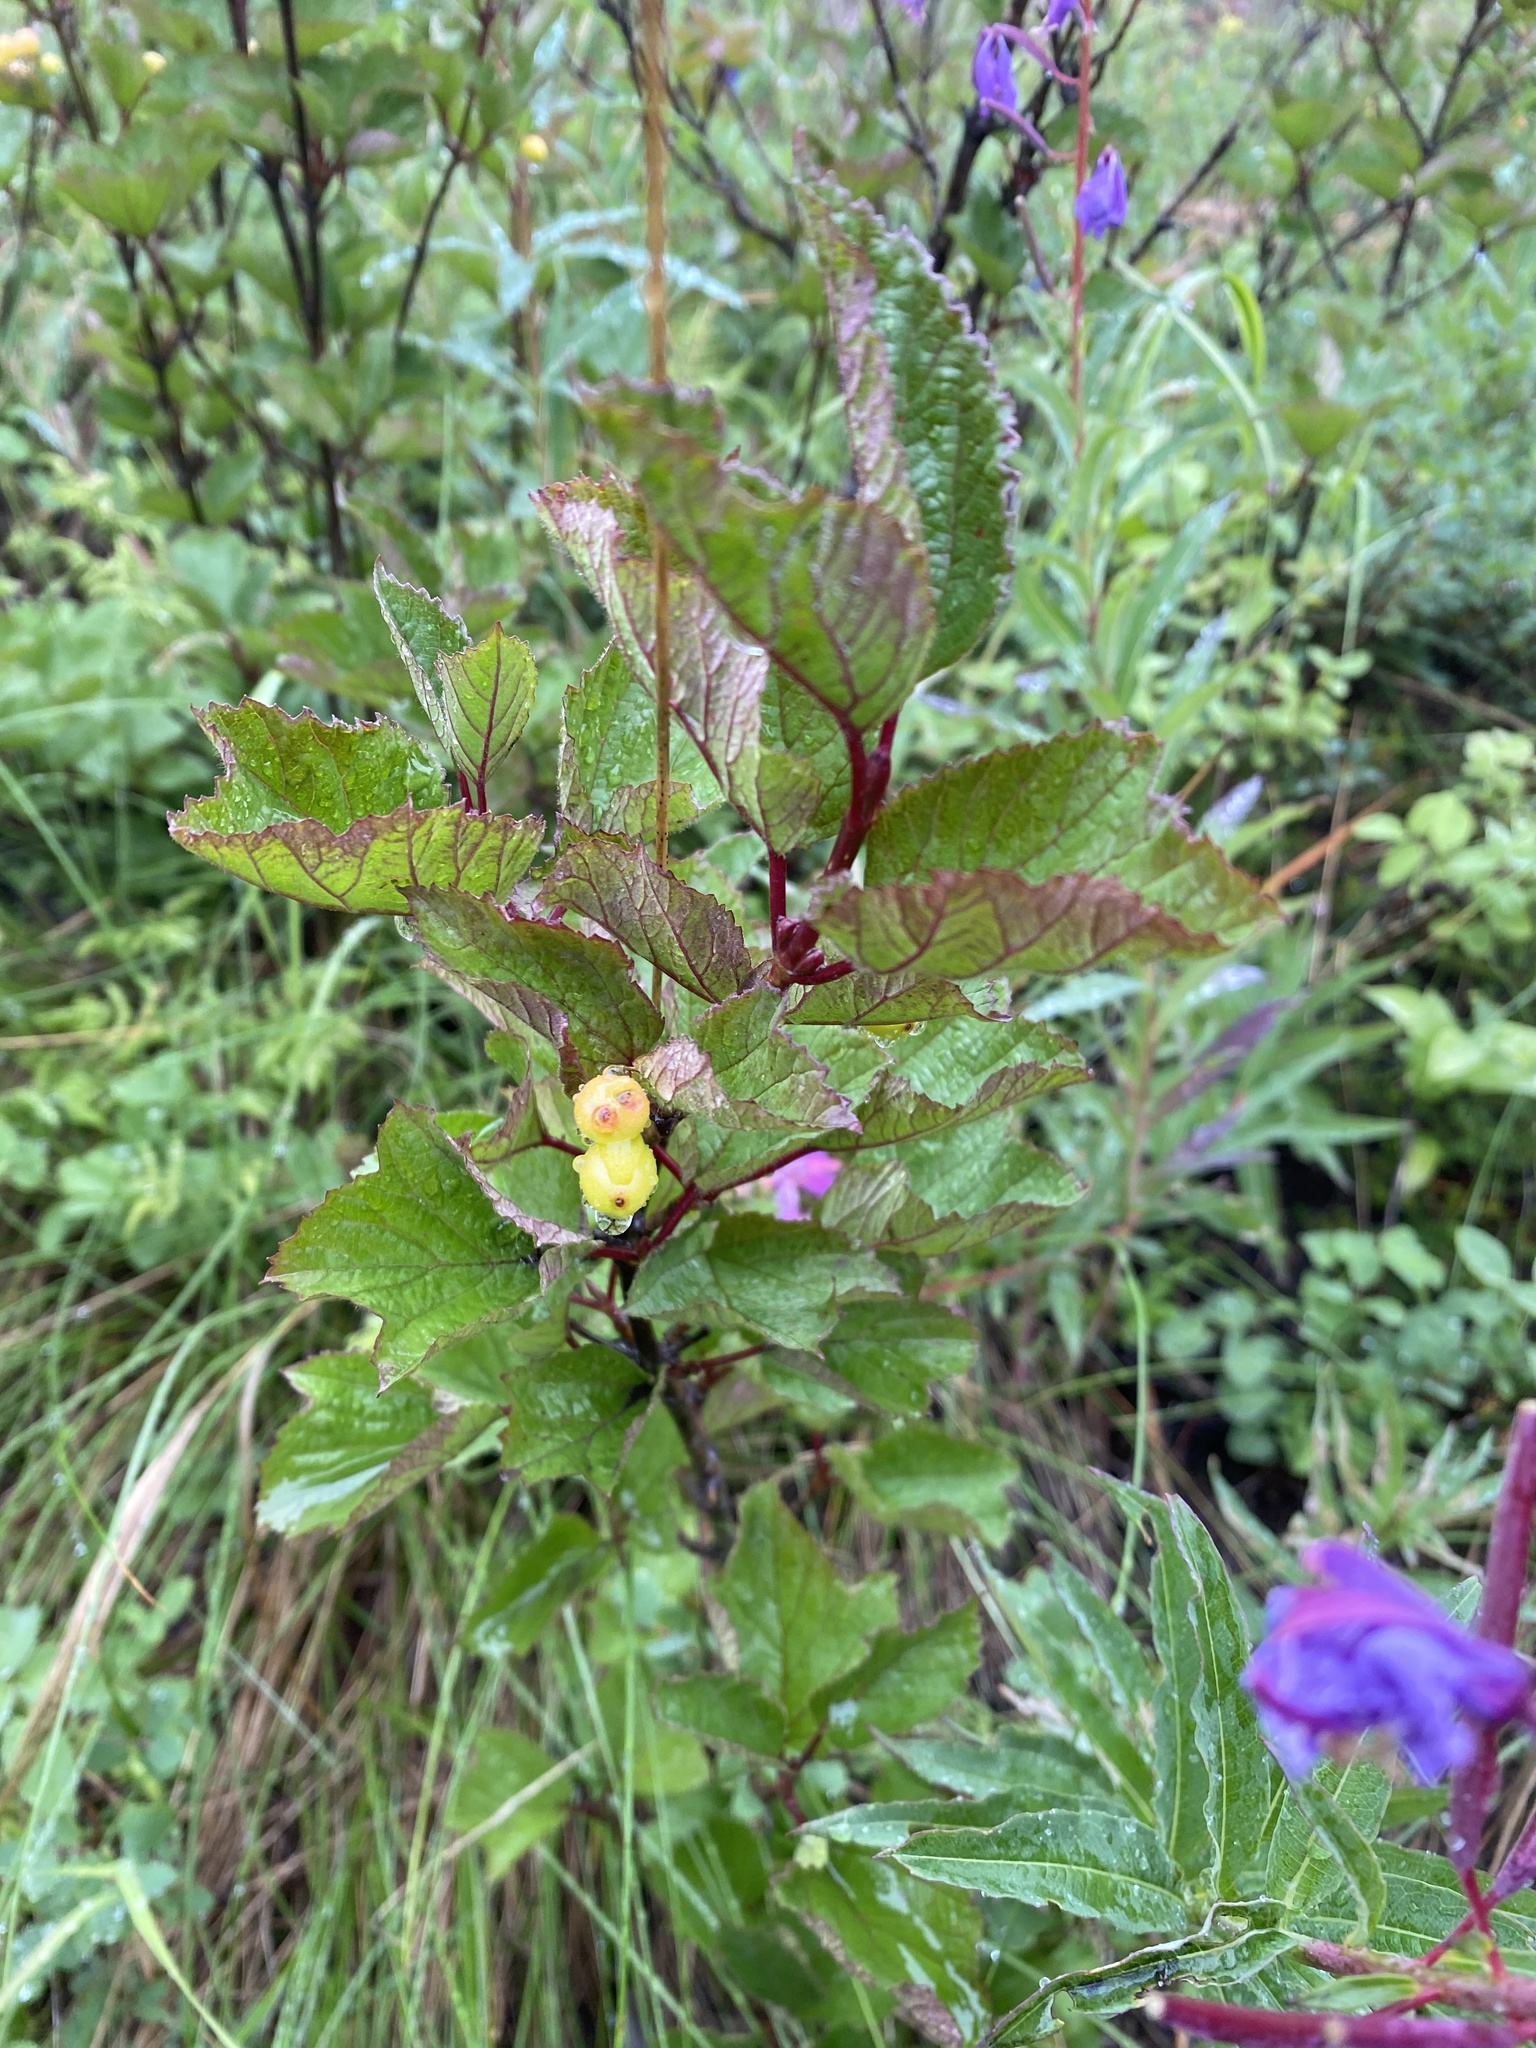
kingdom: Plantae
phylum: Tracheophyta
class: Magnoliopsida
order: Dipsacales
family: Viburnaceae
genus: Viburnum
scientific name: Viburnum edule
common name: Mooseberry
